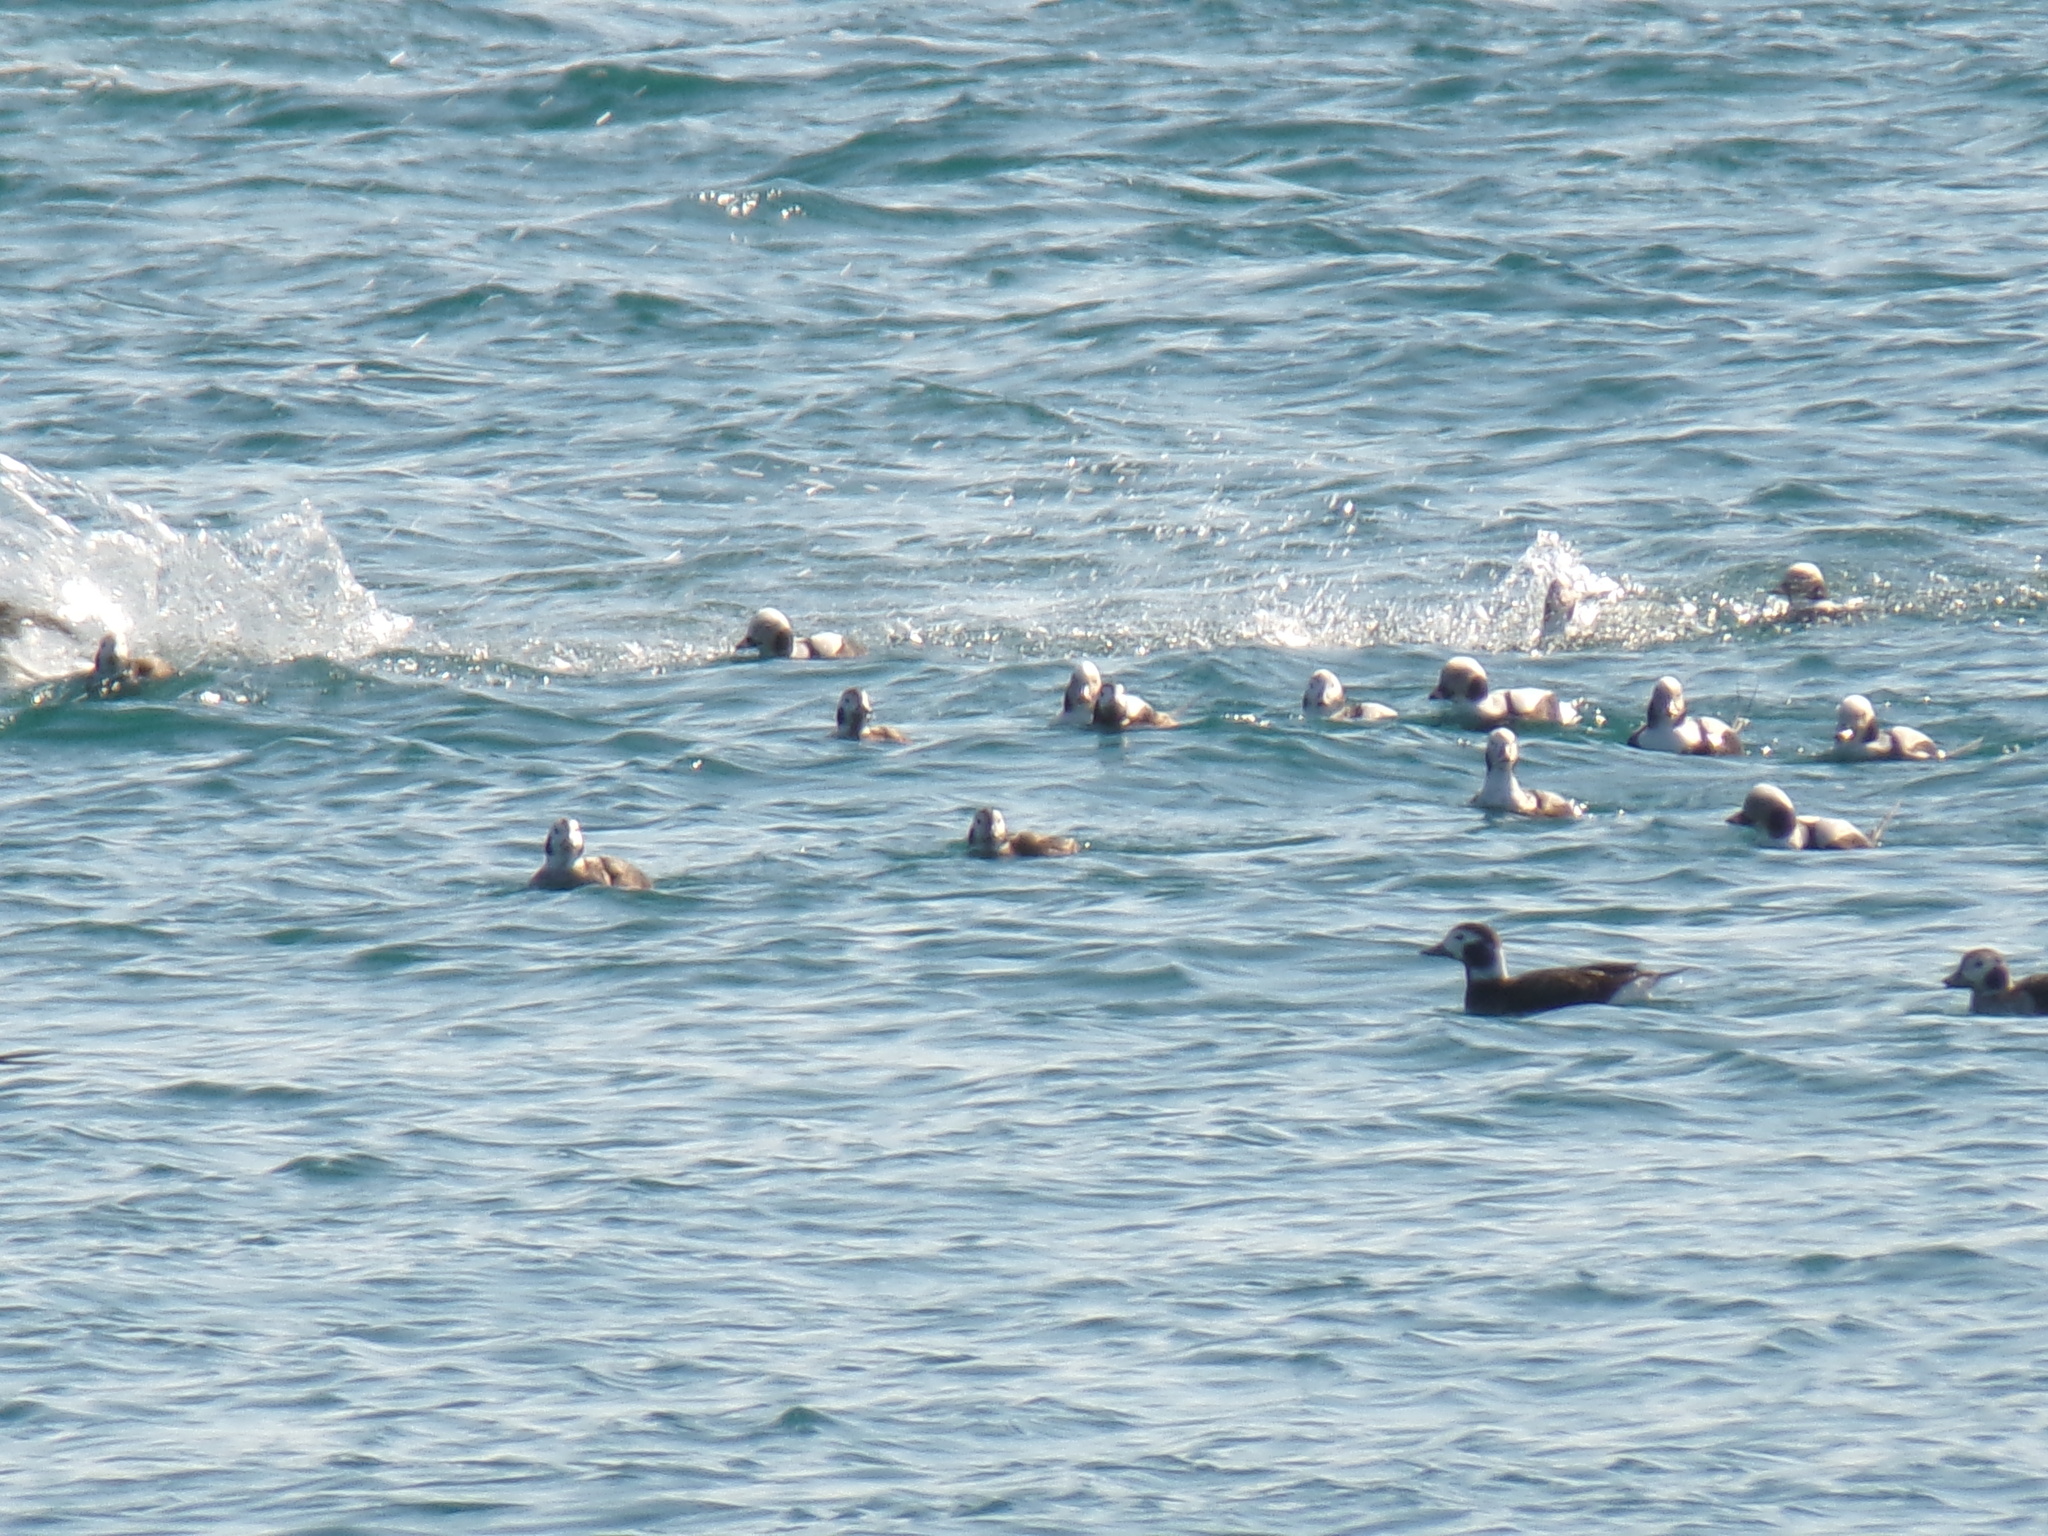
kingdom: Animalia
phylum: Chordata
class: Aves
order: Anseriformes
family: Anatidae
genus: Clangula
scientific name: Clangula hyemalis
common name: Long-tailed duck
